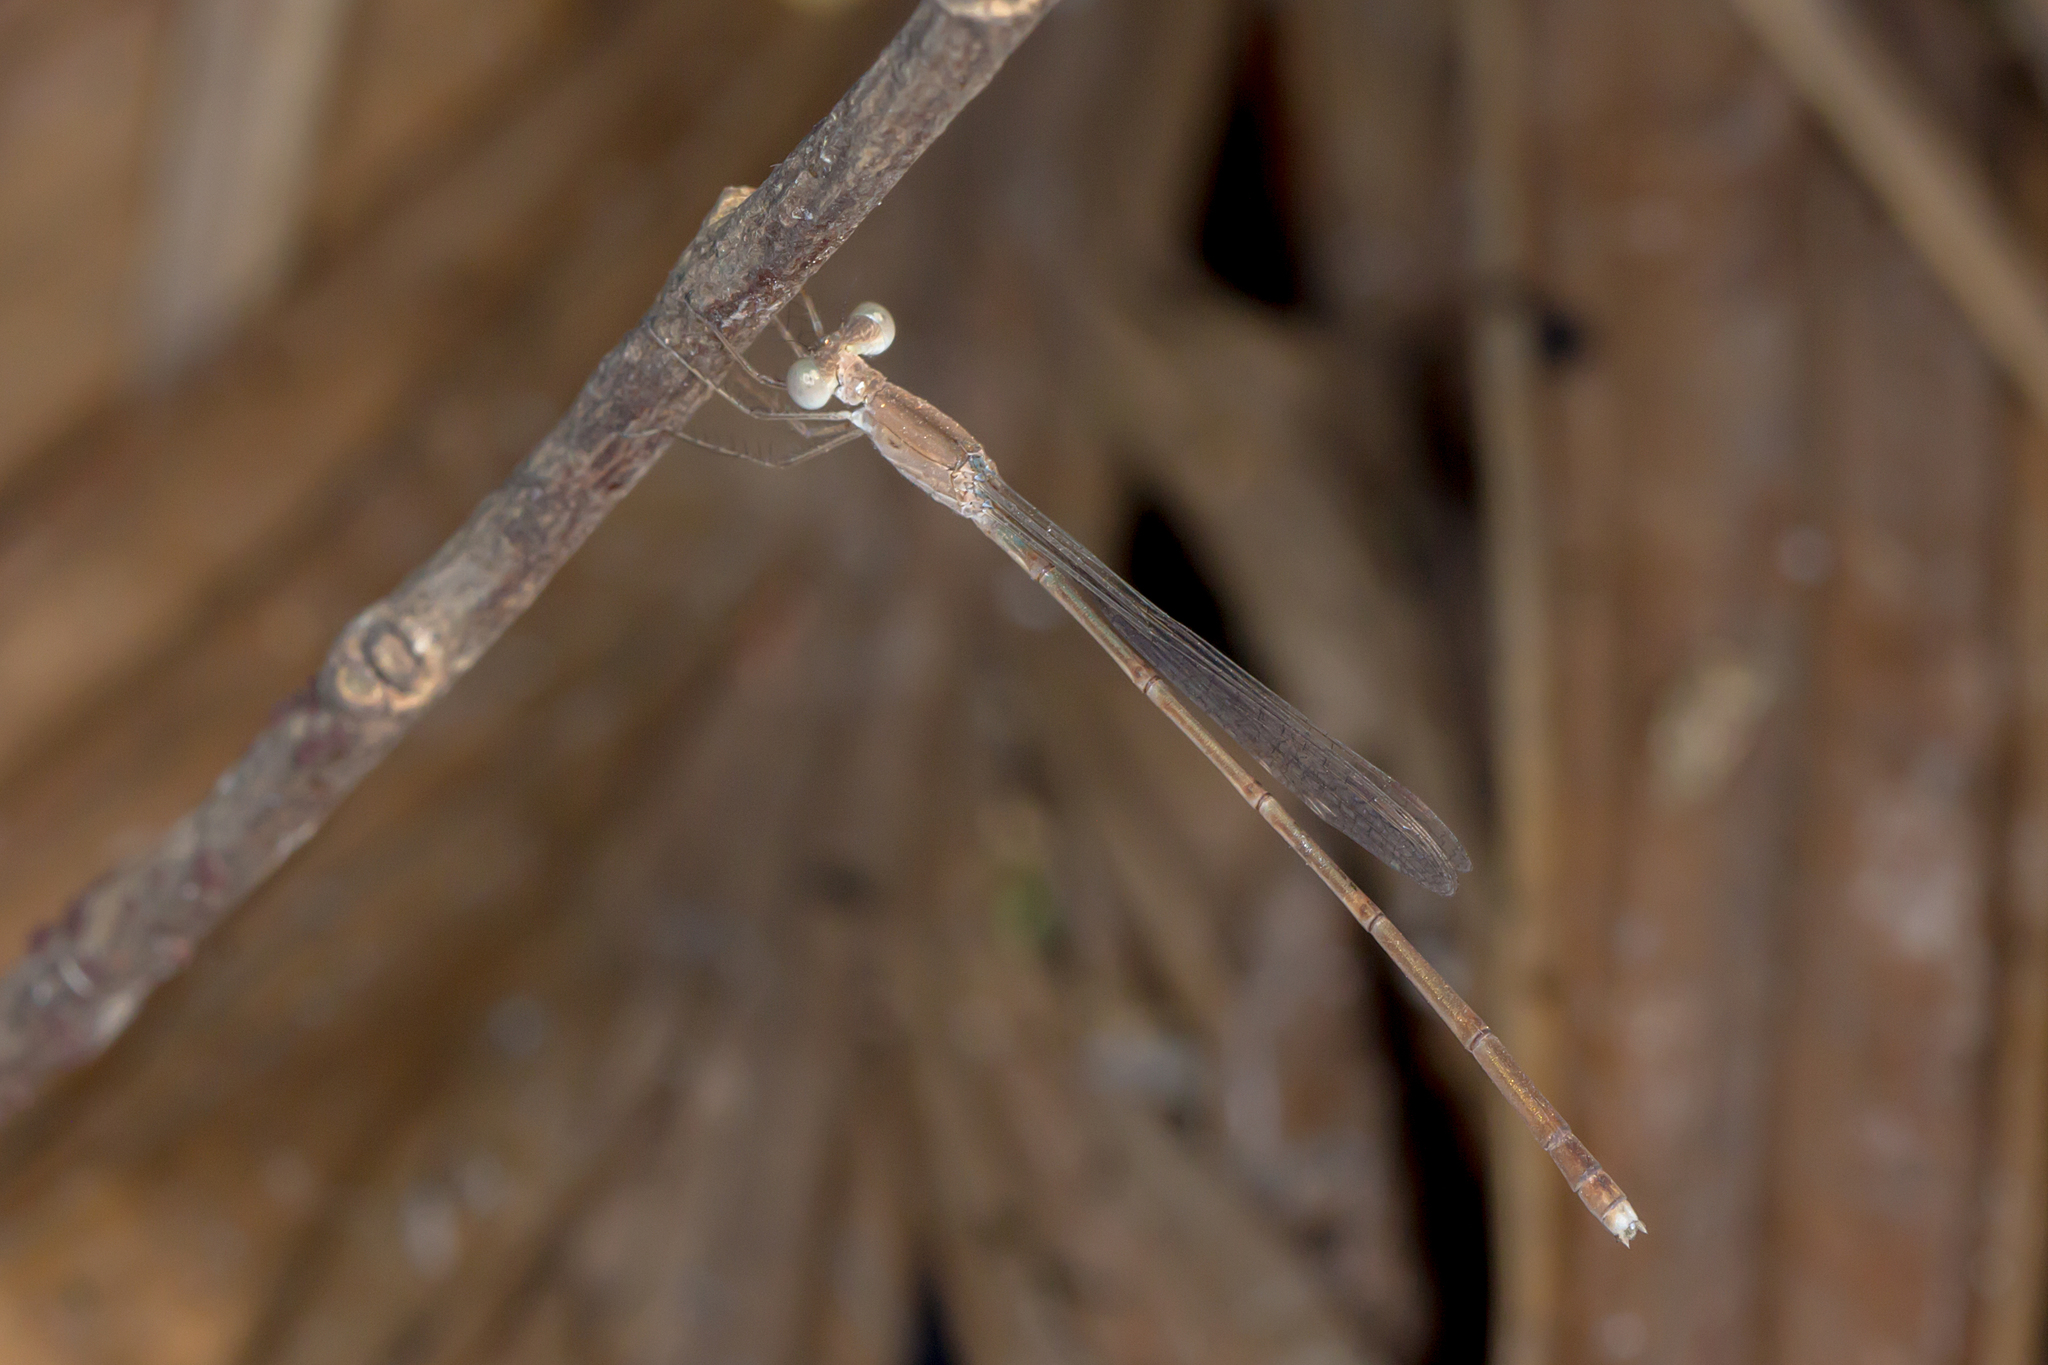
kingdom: Animalia
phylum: Arthropoda
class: Insecta
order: Odonata
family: Lestidae
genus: Indolestes
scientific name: Indolestes insularis
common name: Northern ringtail
